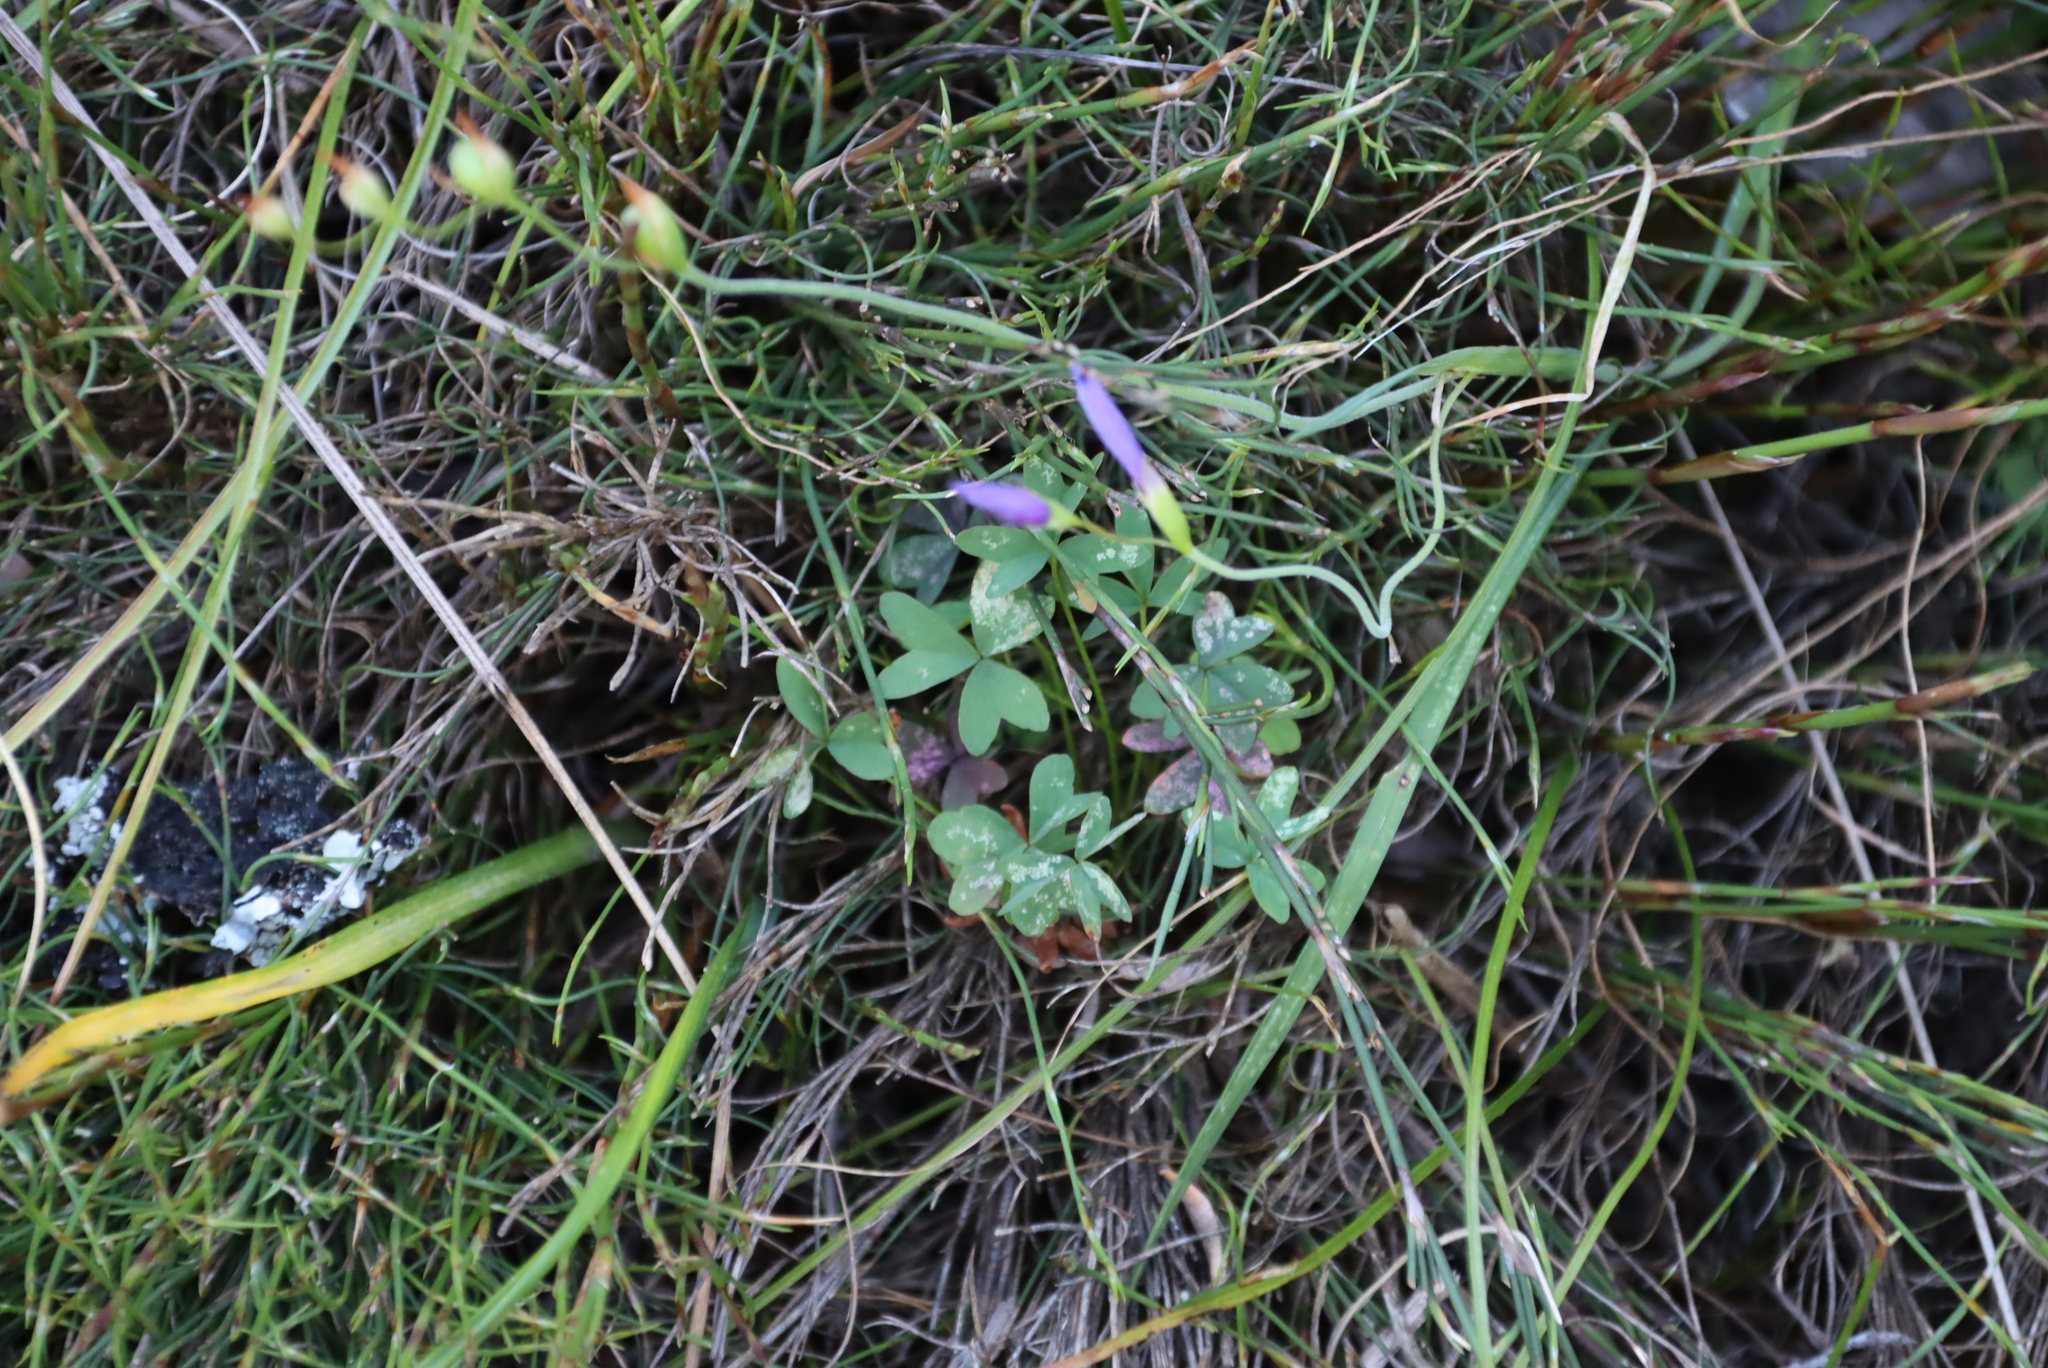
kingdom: Plantae
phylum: Tracheophyta
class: Liliopsida
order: Asparagales
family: Iridaceae
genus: Geissorhiza
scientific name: Geissorhiza aspera
